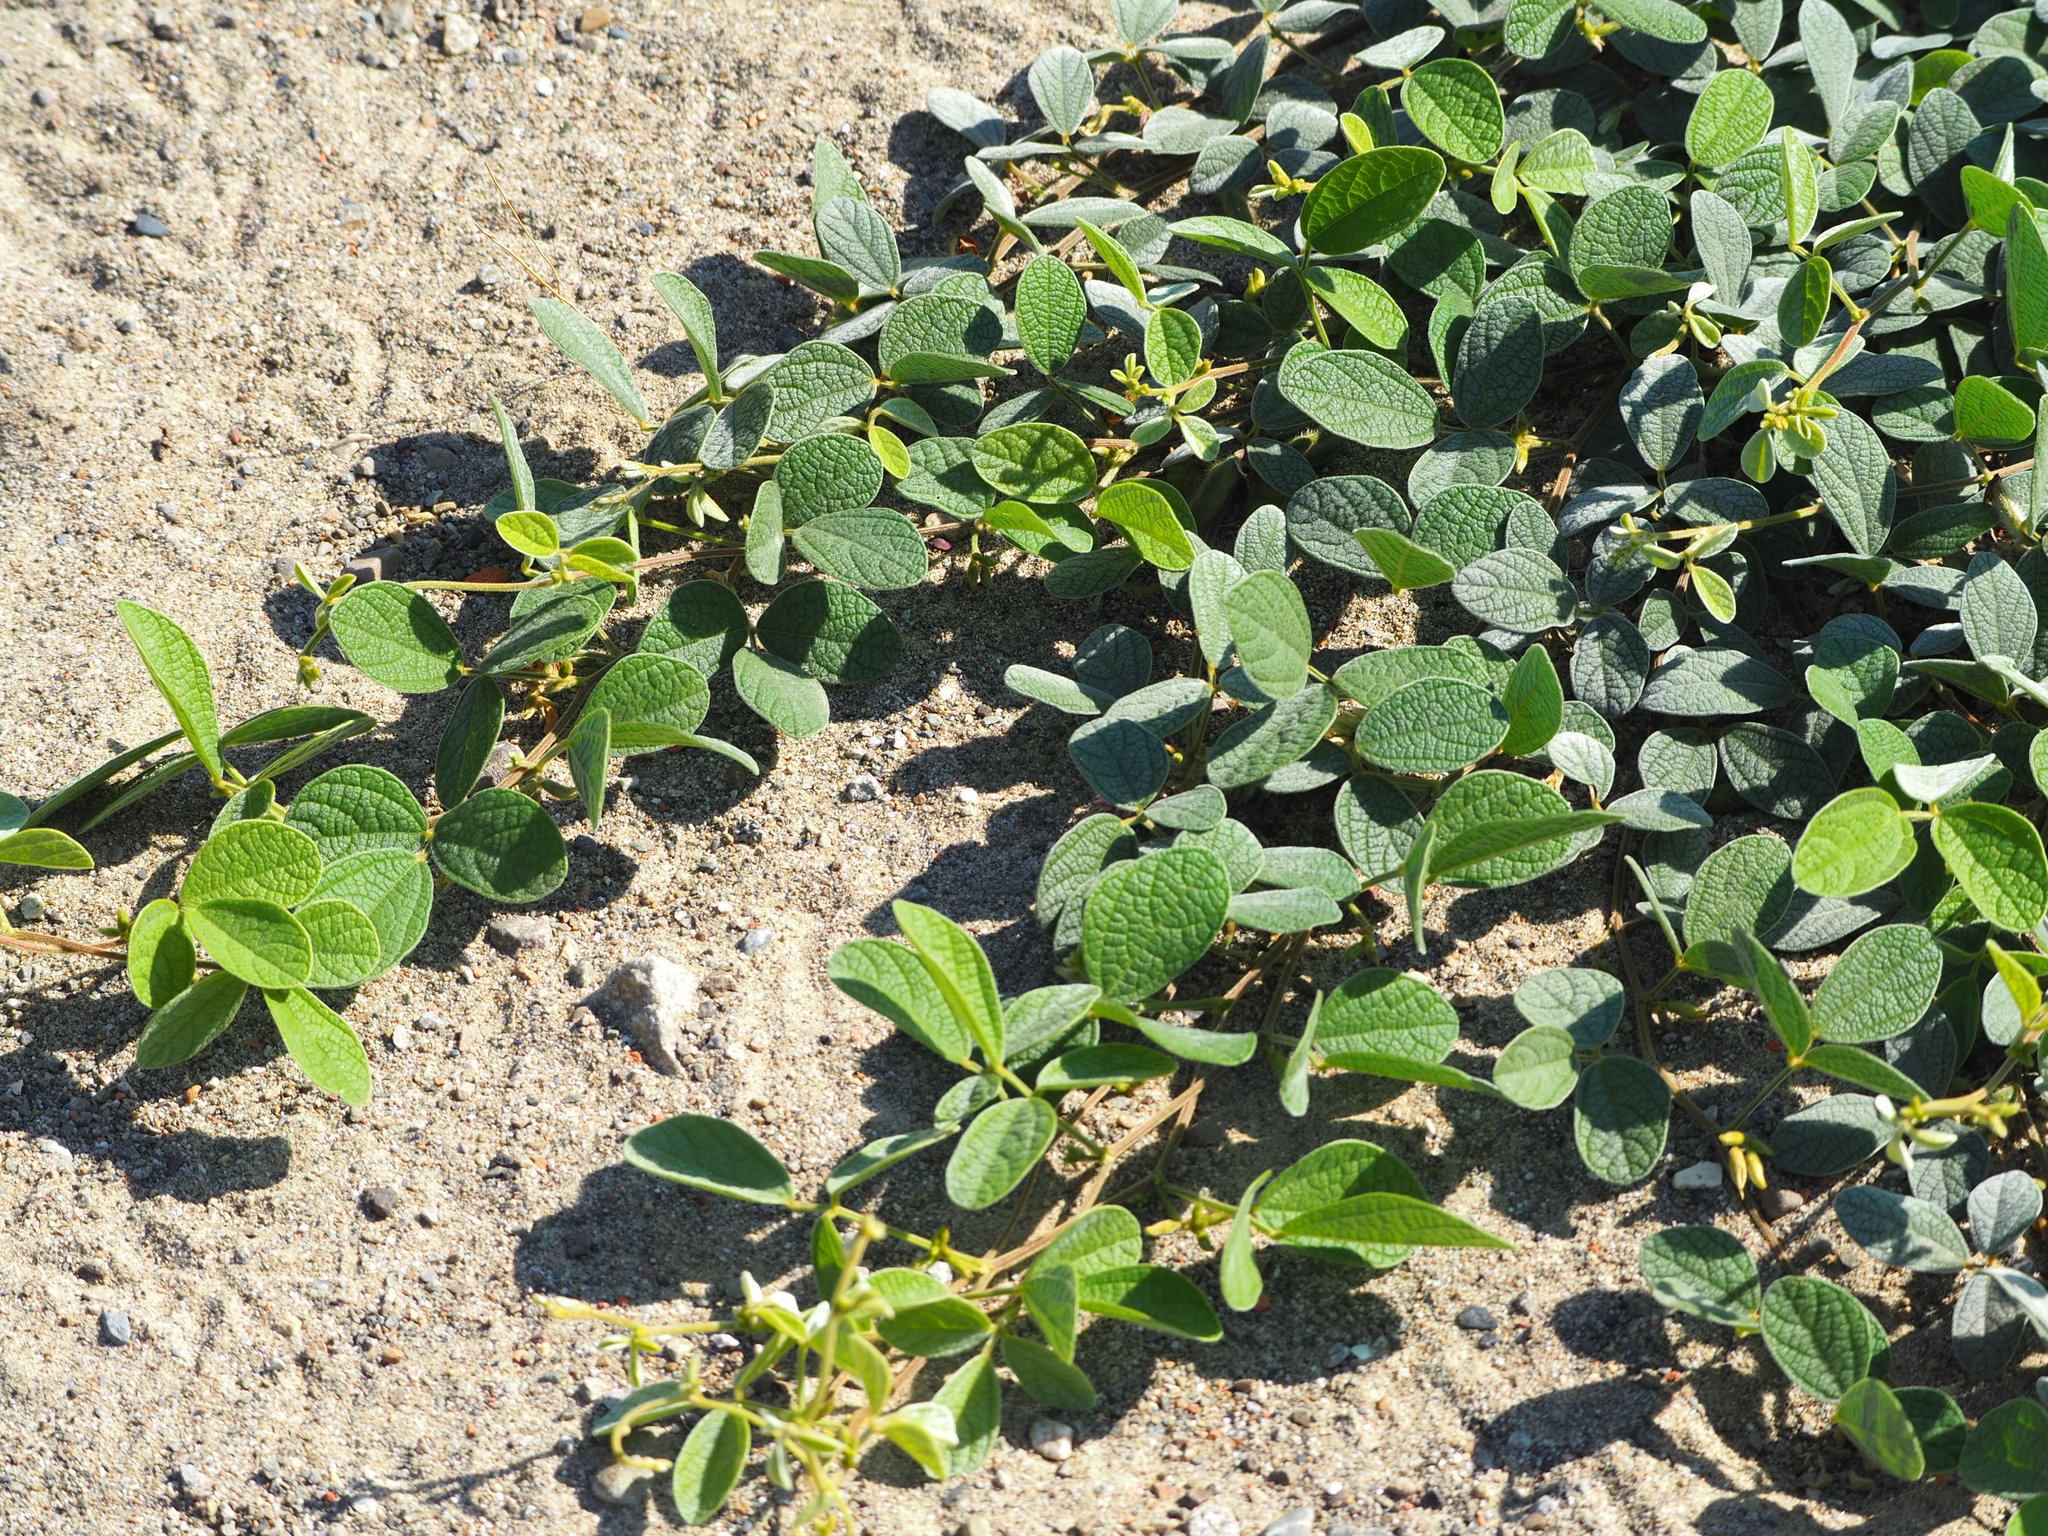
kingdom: Plantae
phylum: Tracheophyta
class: Magnoliopsida
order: Fabales
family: Fabaceae
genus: Cajanus
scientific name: Cajanus scarabaeoides
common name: Showy pigeonpea
